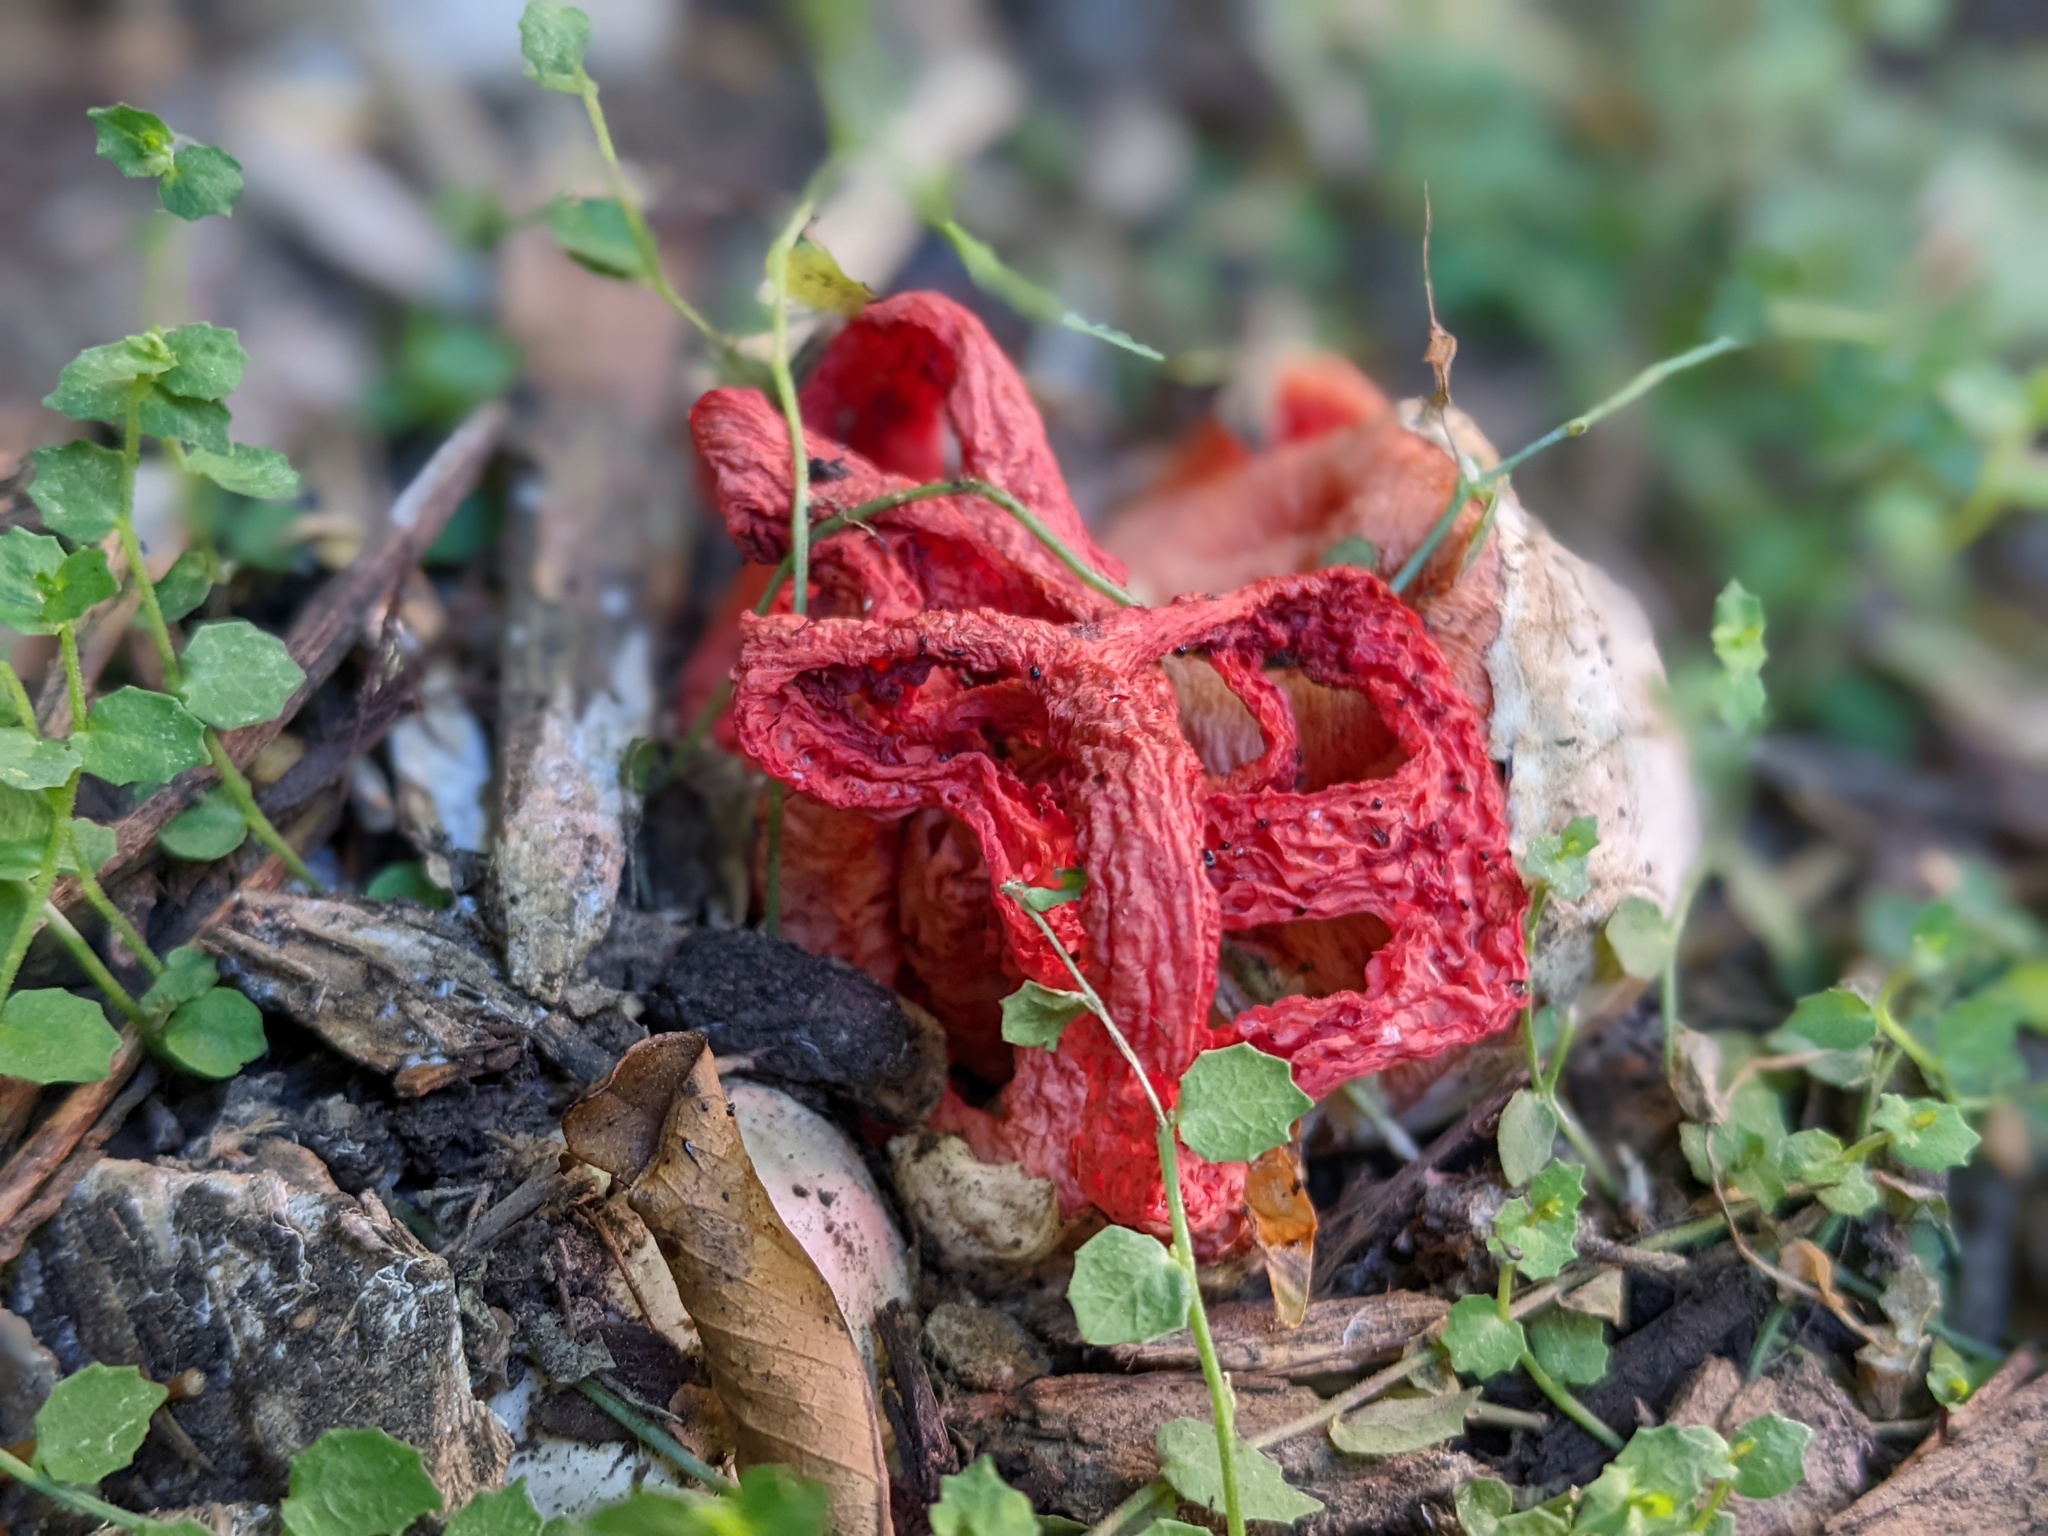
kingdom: Fungi
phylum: Basidiomycota
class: Agaricomycetes
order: Phallales
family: Phallaceae
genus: Clathrus
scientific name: Clathrus ruber
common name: Red cage
